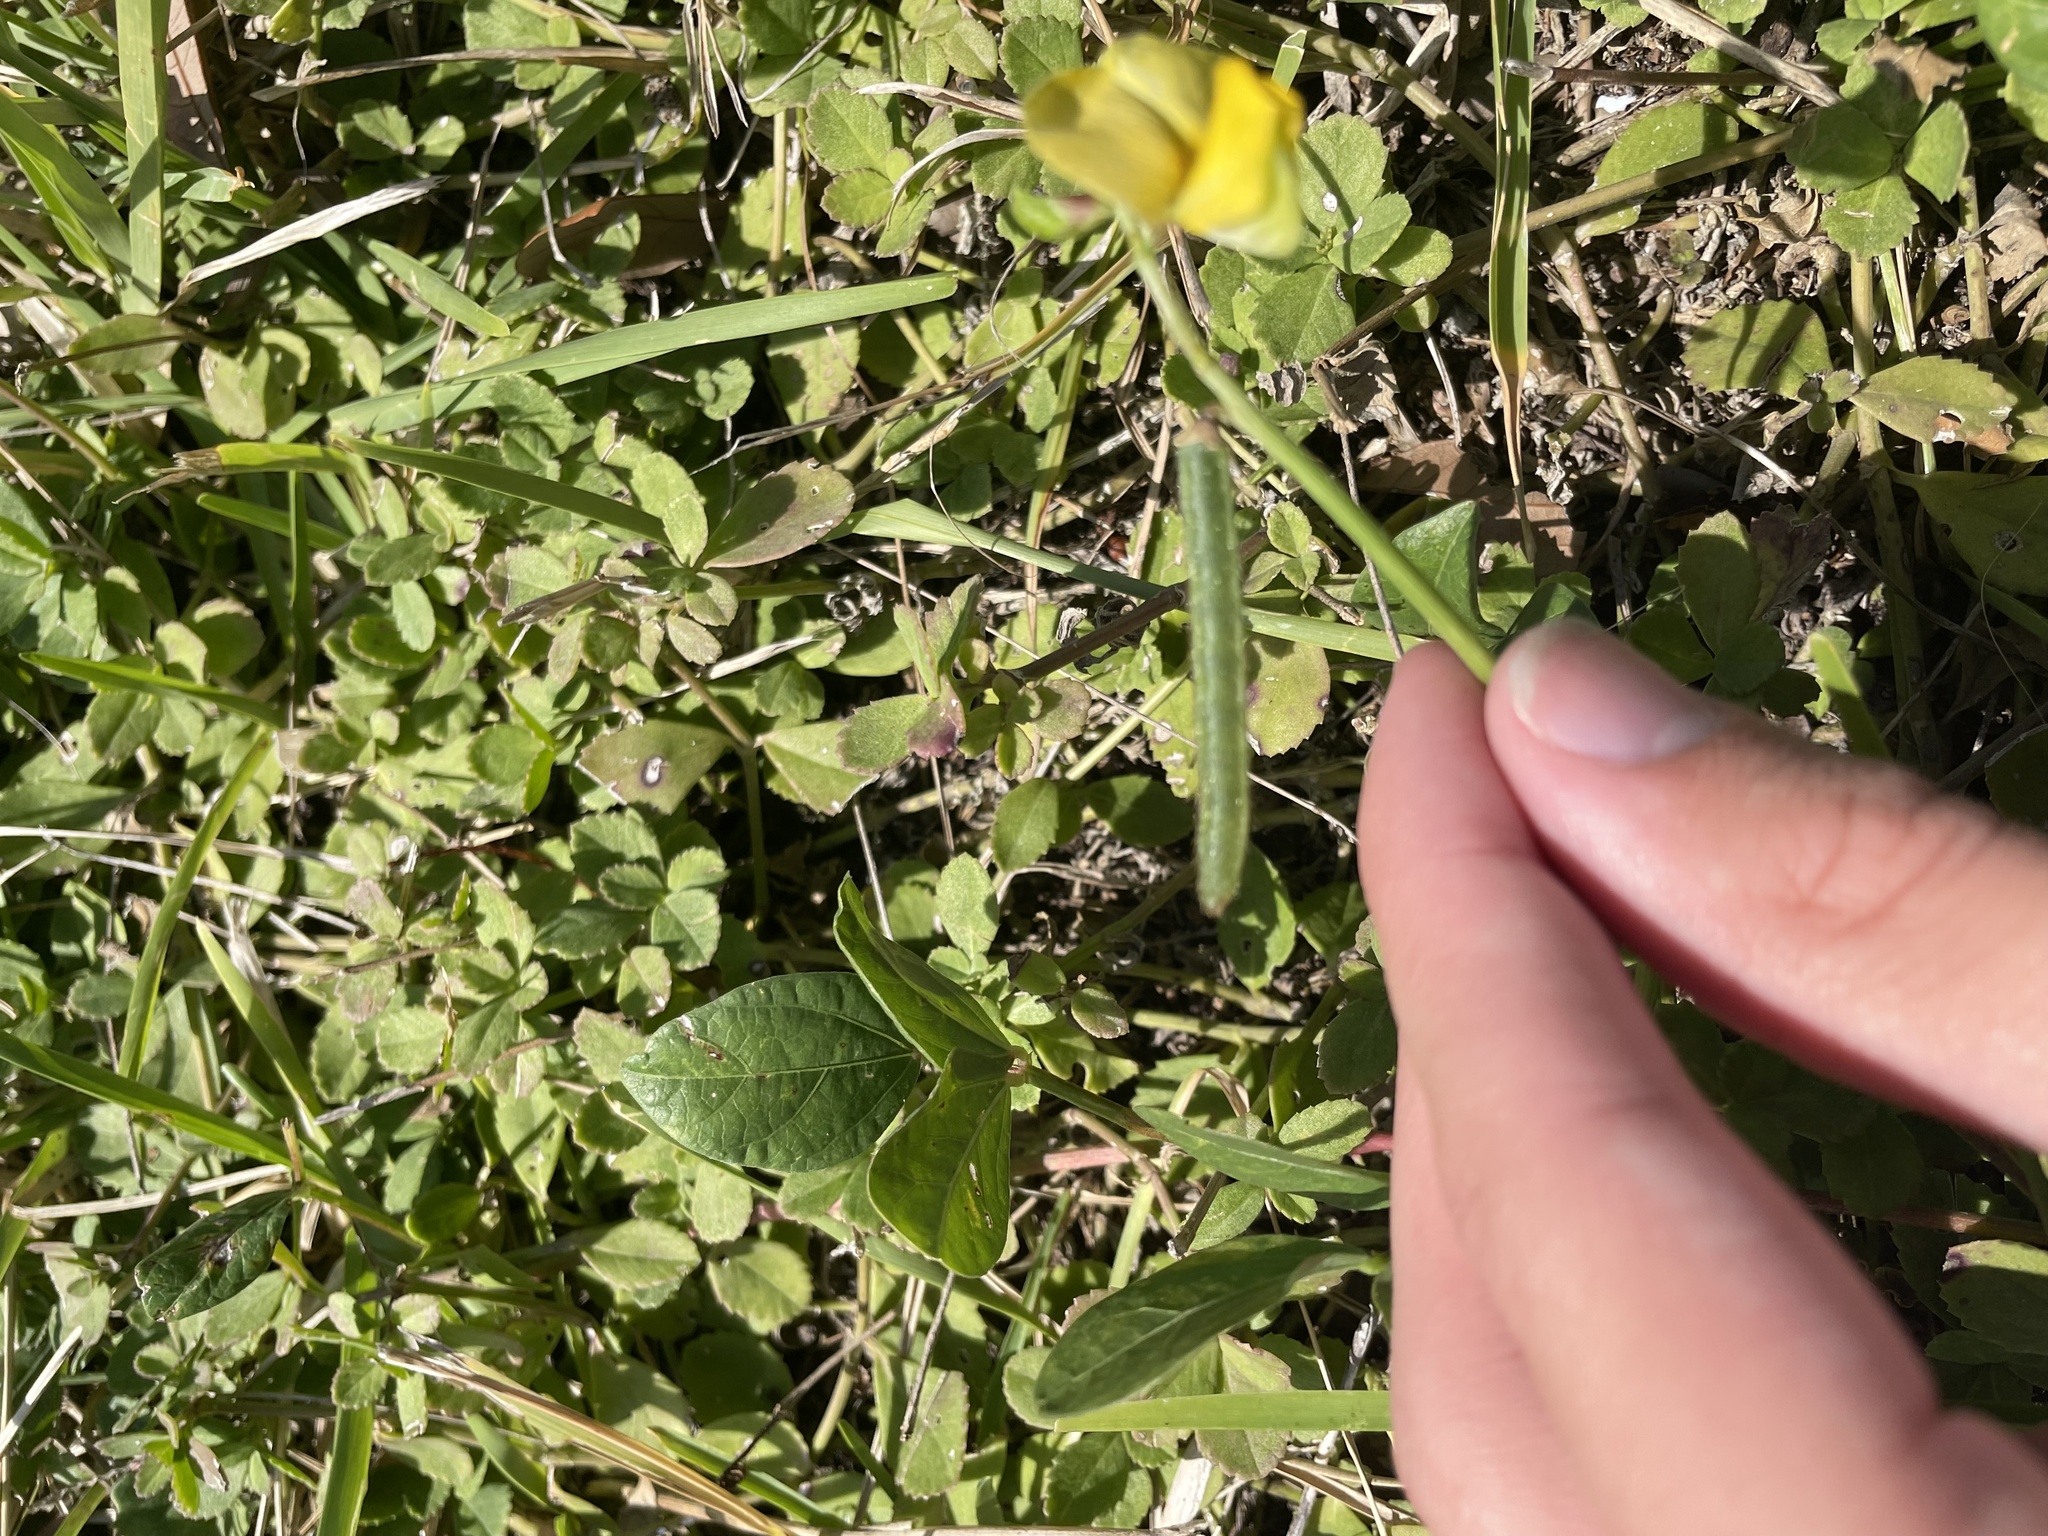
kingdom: Plantae
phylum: Tracheophyta
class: Magnoliopsida
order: Fabales
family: Fabaceae
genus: Vigna
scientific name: Vigna luteola
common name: Hairypod cowpea
